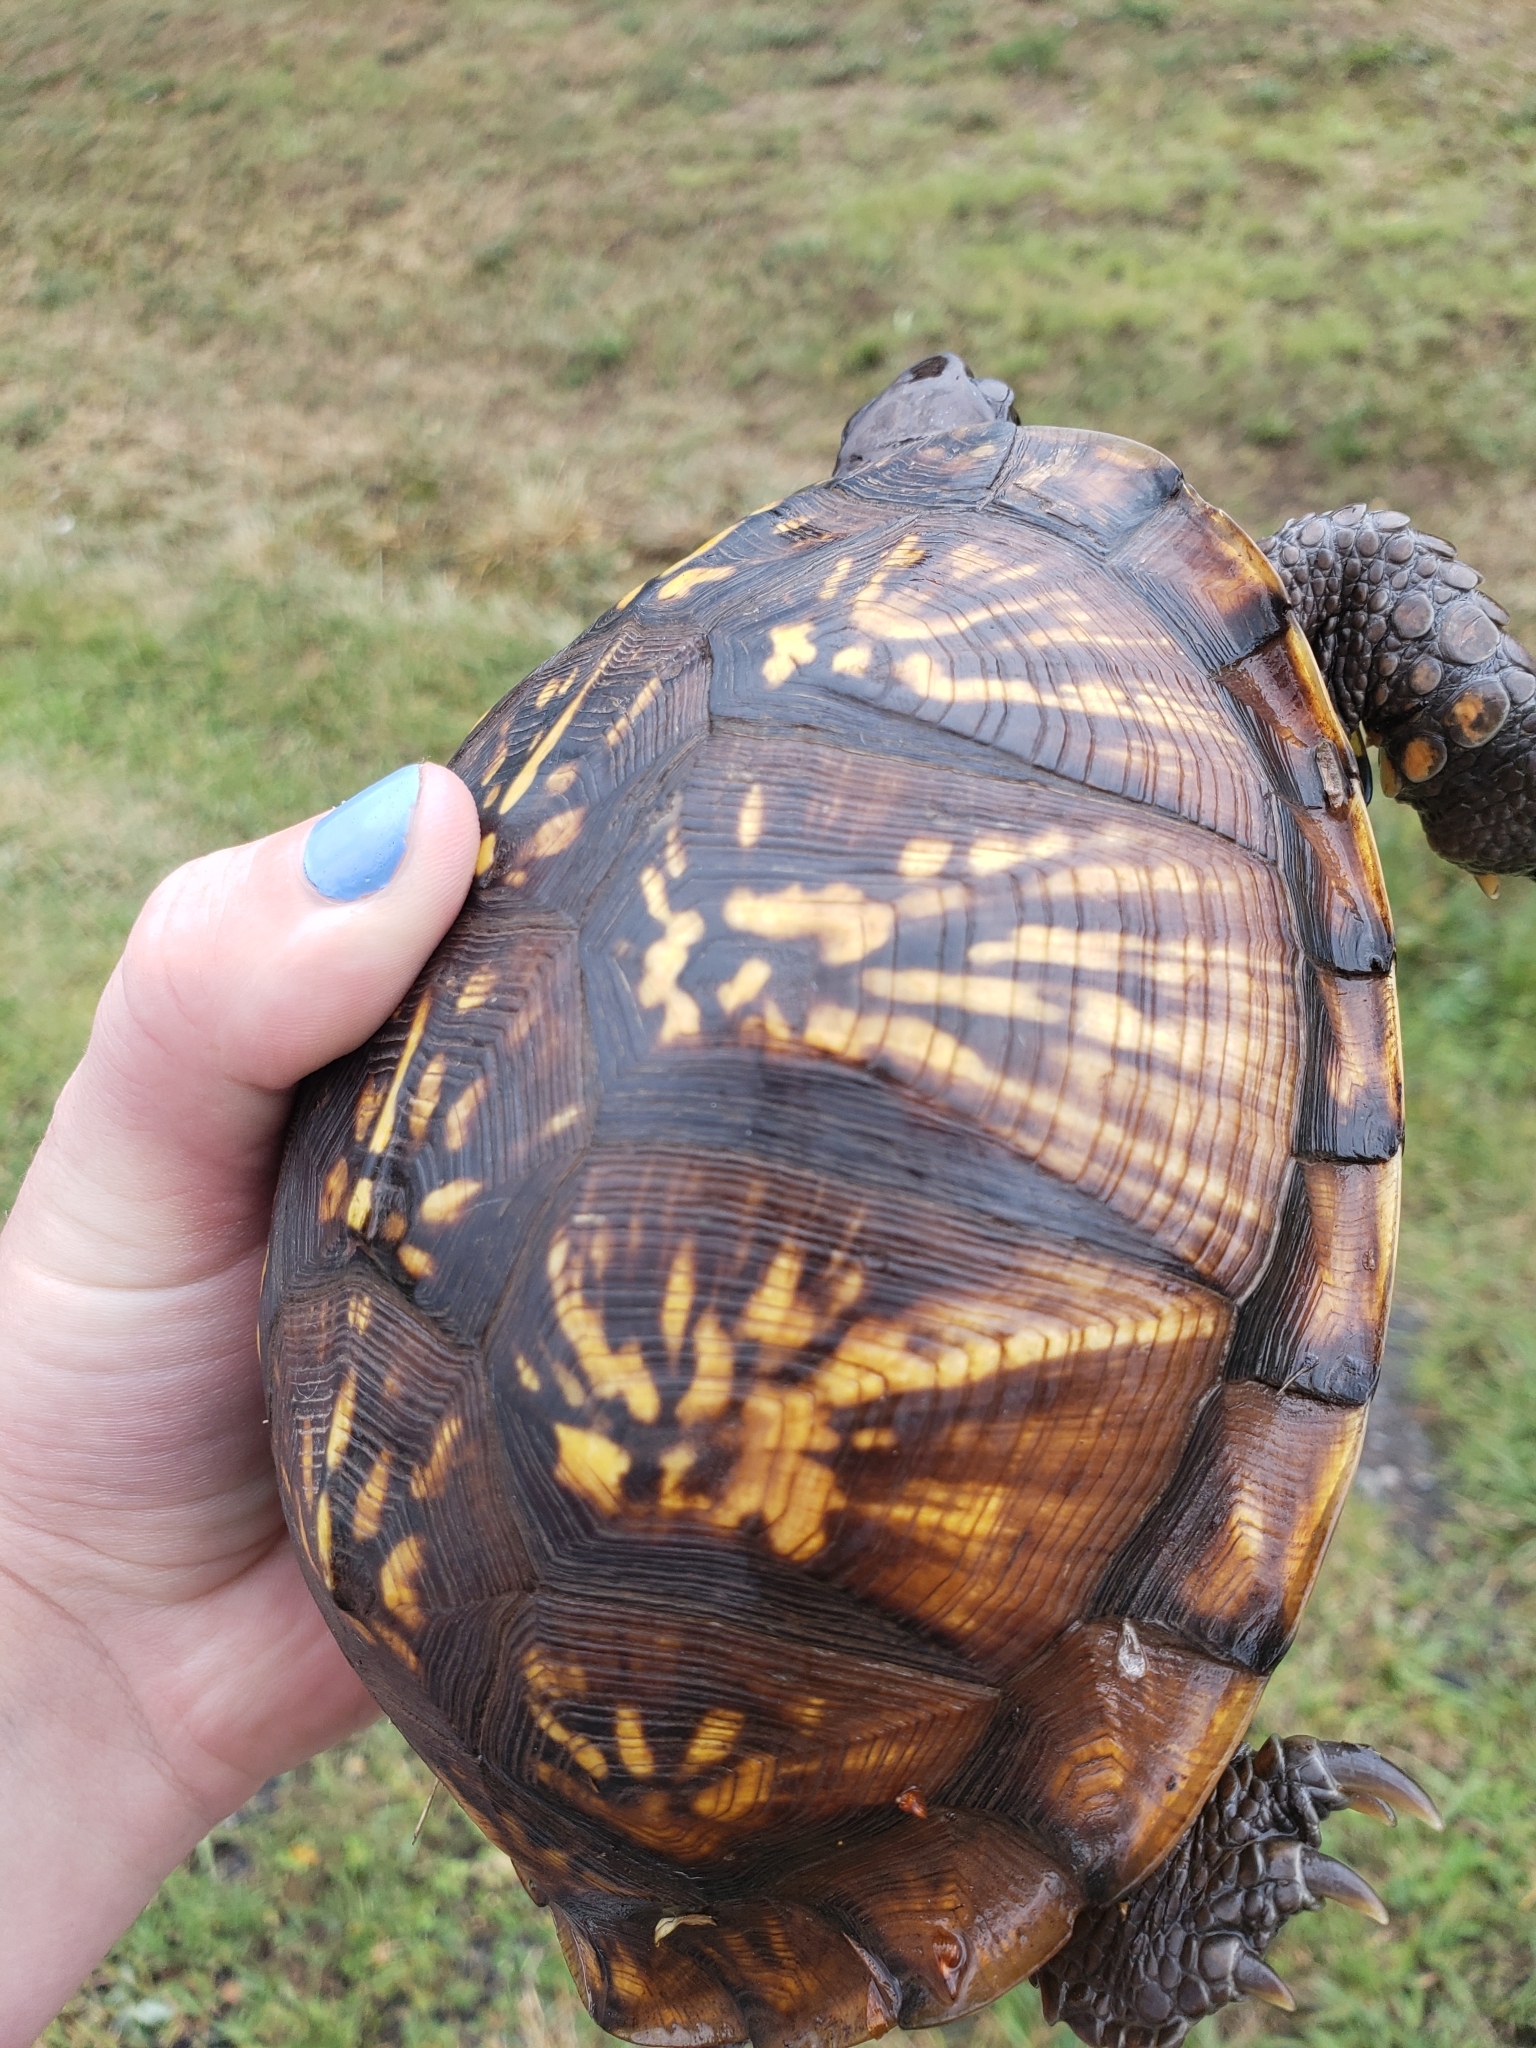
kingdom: Animalia
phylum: Chordata
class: Testudines
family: Emydidae
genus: Terrapene
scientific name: Terrapene carolina
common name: Common box turtle
